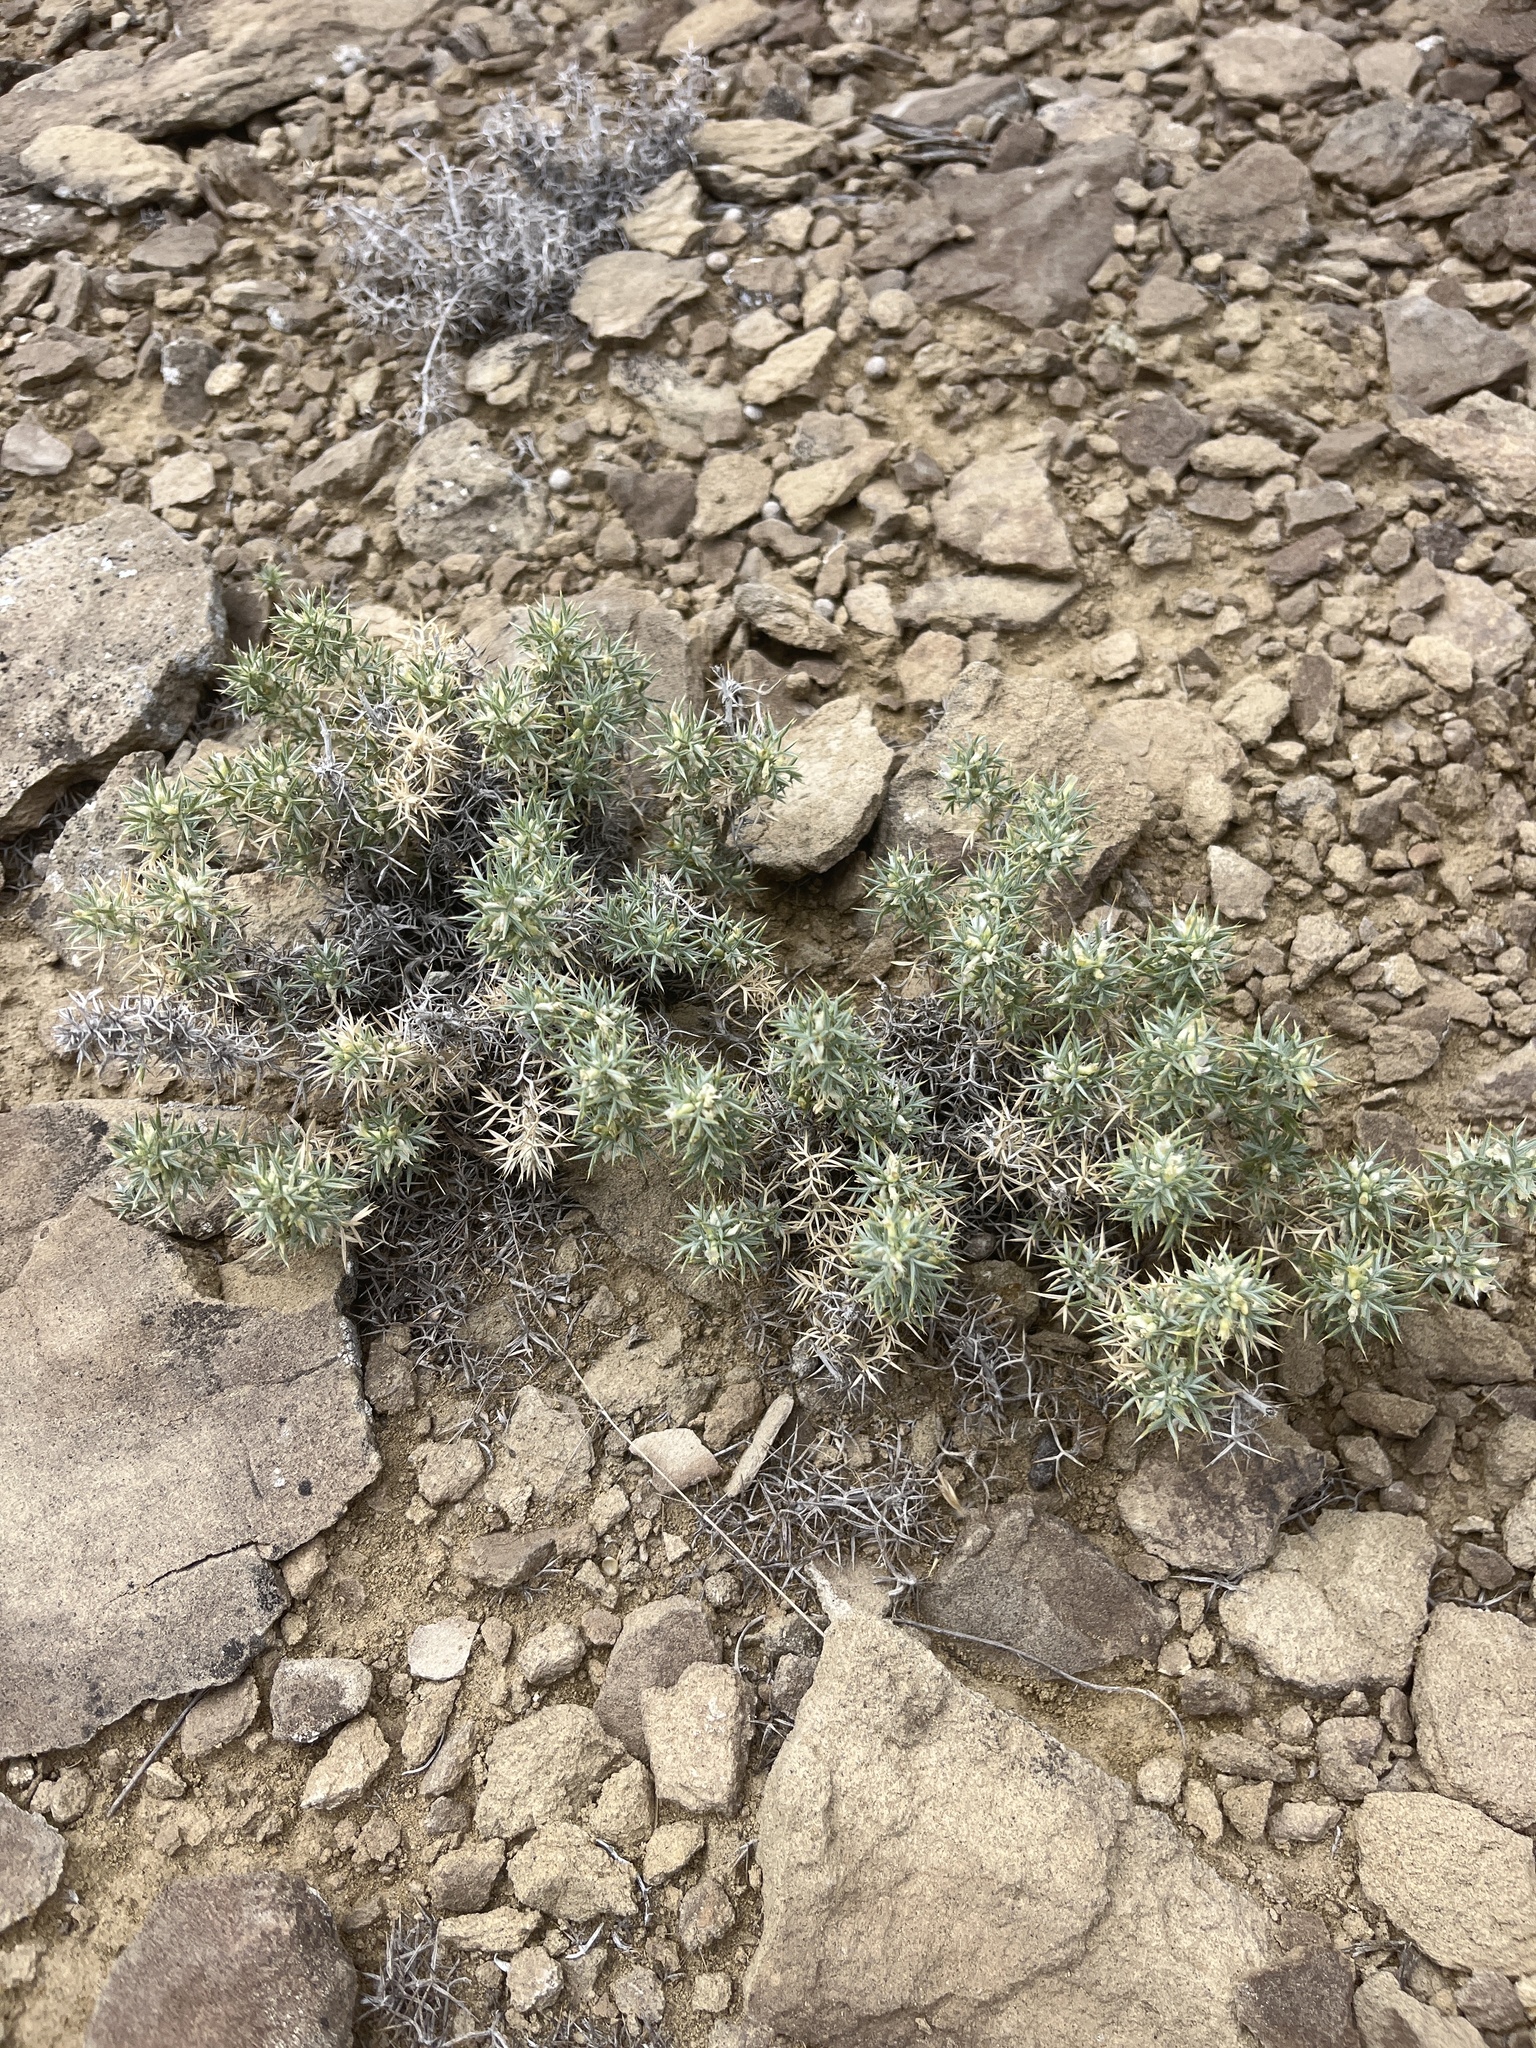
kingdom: Plantae
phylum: Tracheophyta
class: Magnoliopsida
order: Fabales
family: Fabaceae
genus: Astragalus
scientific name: Astragalus kentrophyta
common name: Prickly milk-vetch
